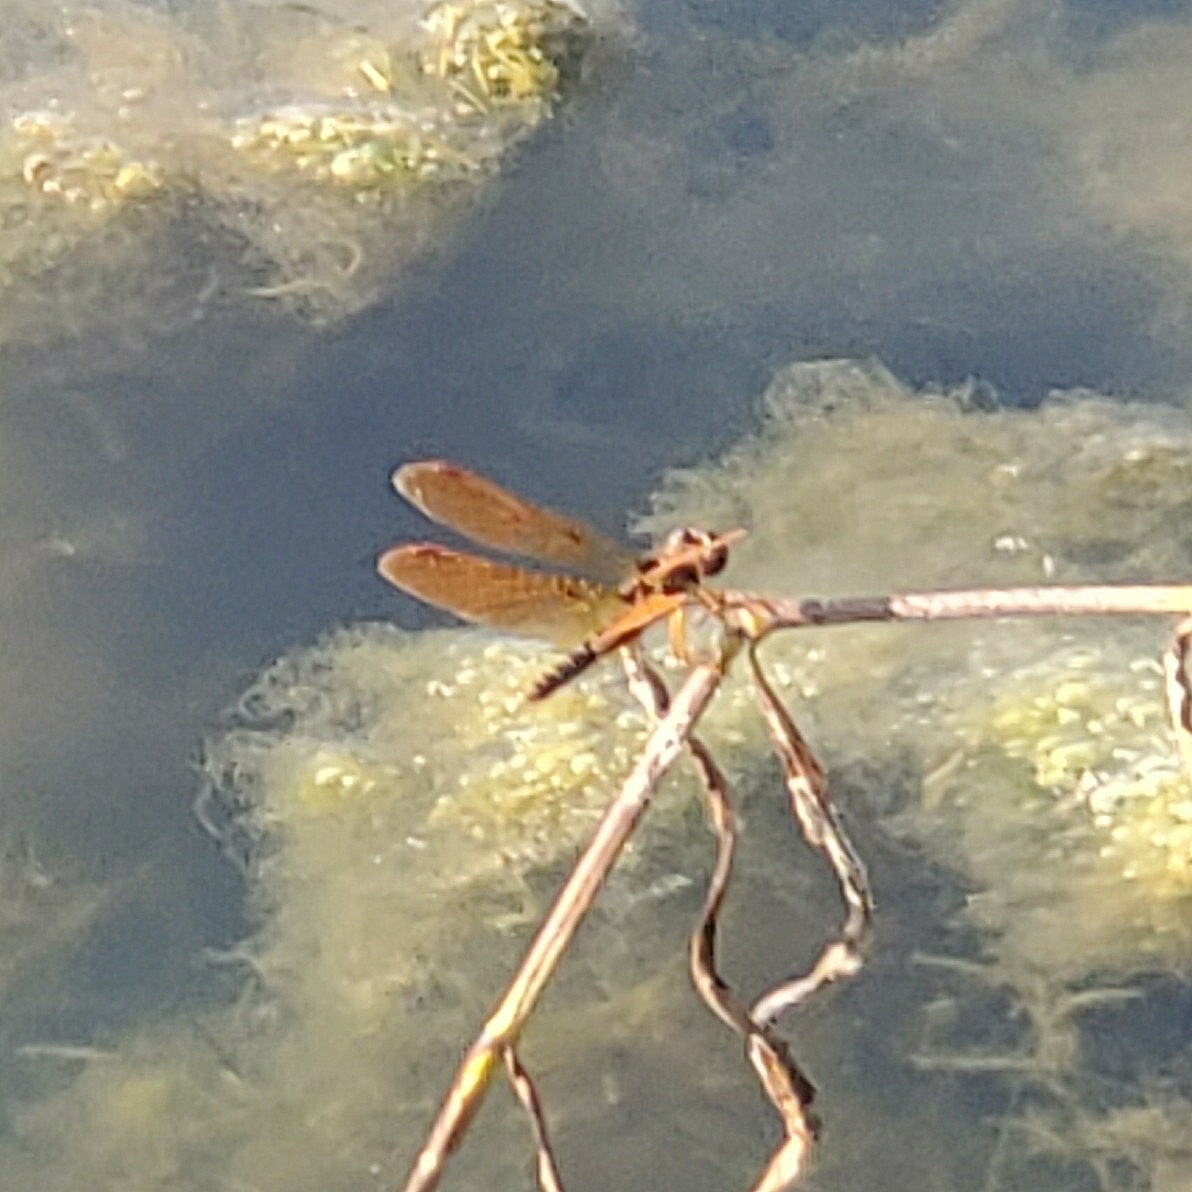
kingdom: Animalia
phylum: Arthropoda
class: Insecta
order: Odonata
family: Libellulidae
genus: Perithemis
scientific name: Perithemis tenera
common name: Eastern amberwing
